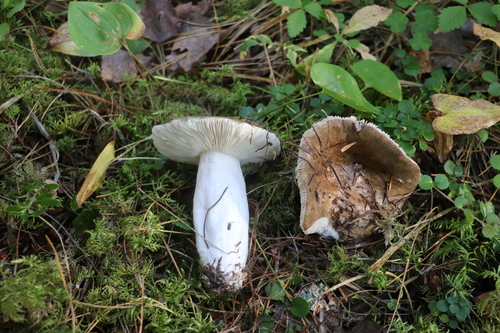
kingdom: Fungi
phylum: Basidiomycota
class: Agaricomycetes
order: Russulales
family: Russulaceae
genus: Russula
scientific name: Russula consobrina
